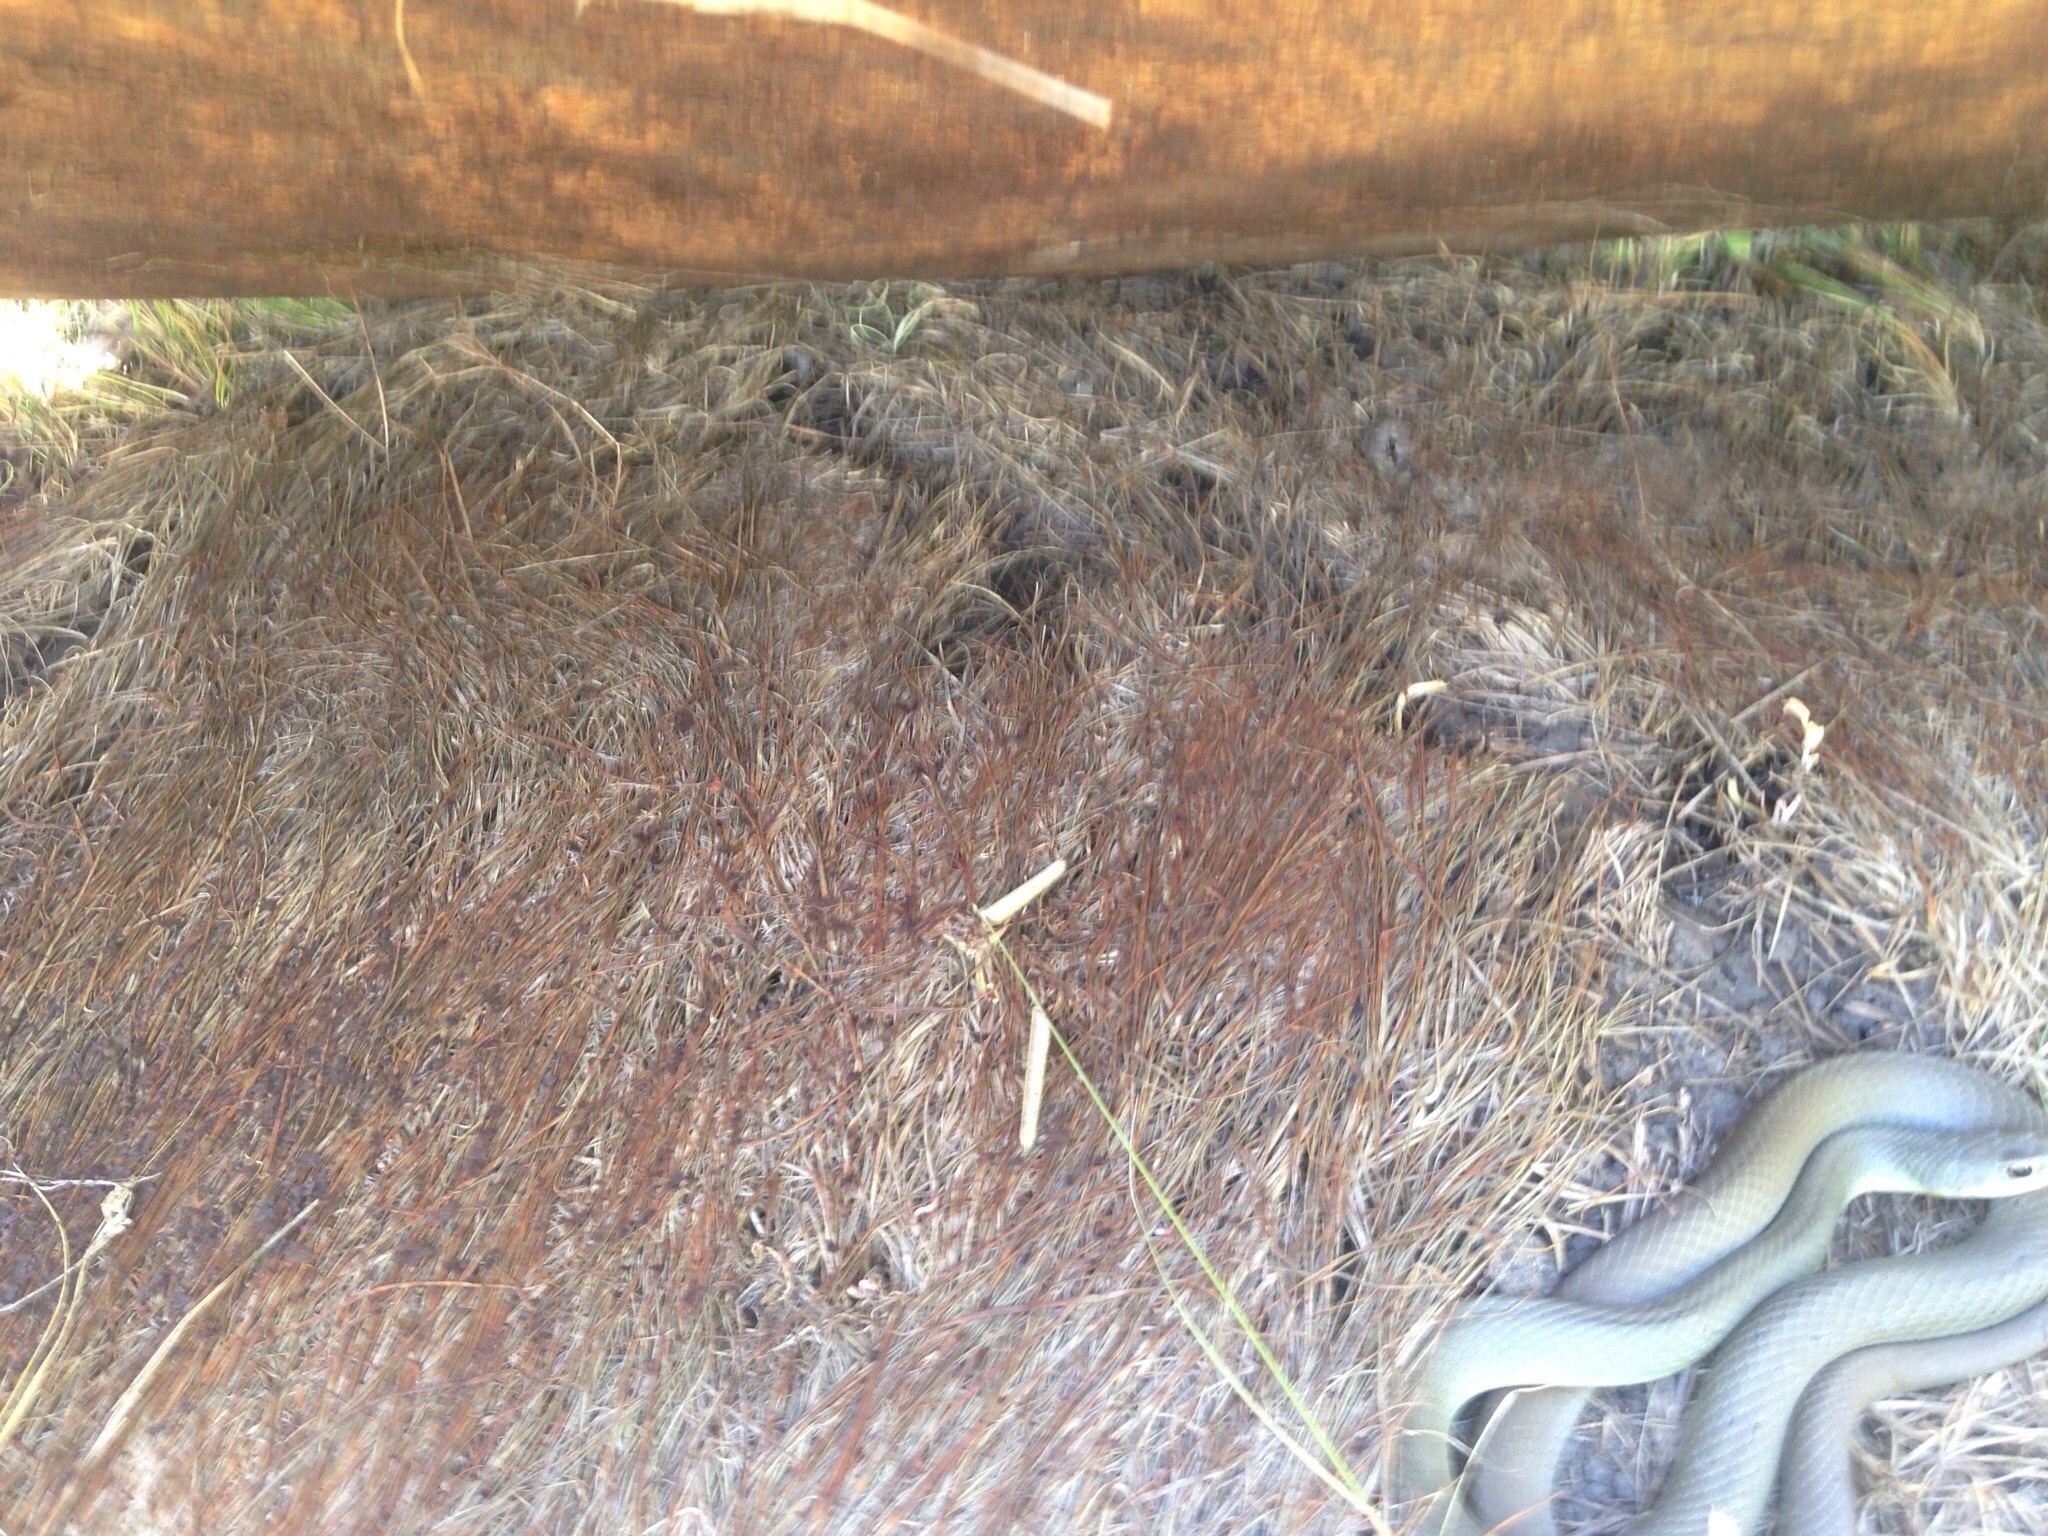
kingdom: Animalia
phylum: Chordata
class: Squamata
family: Colubridae
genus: Coluber
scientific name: Coluber constrictor
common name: Eastern racer
